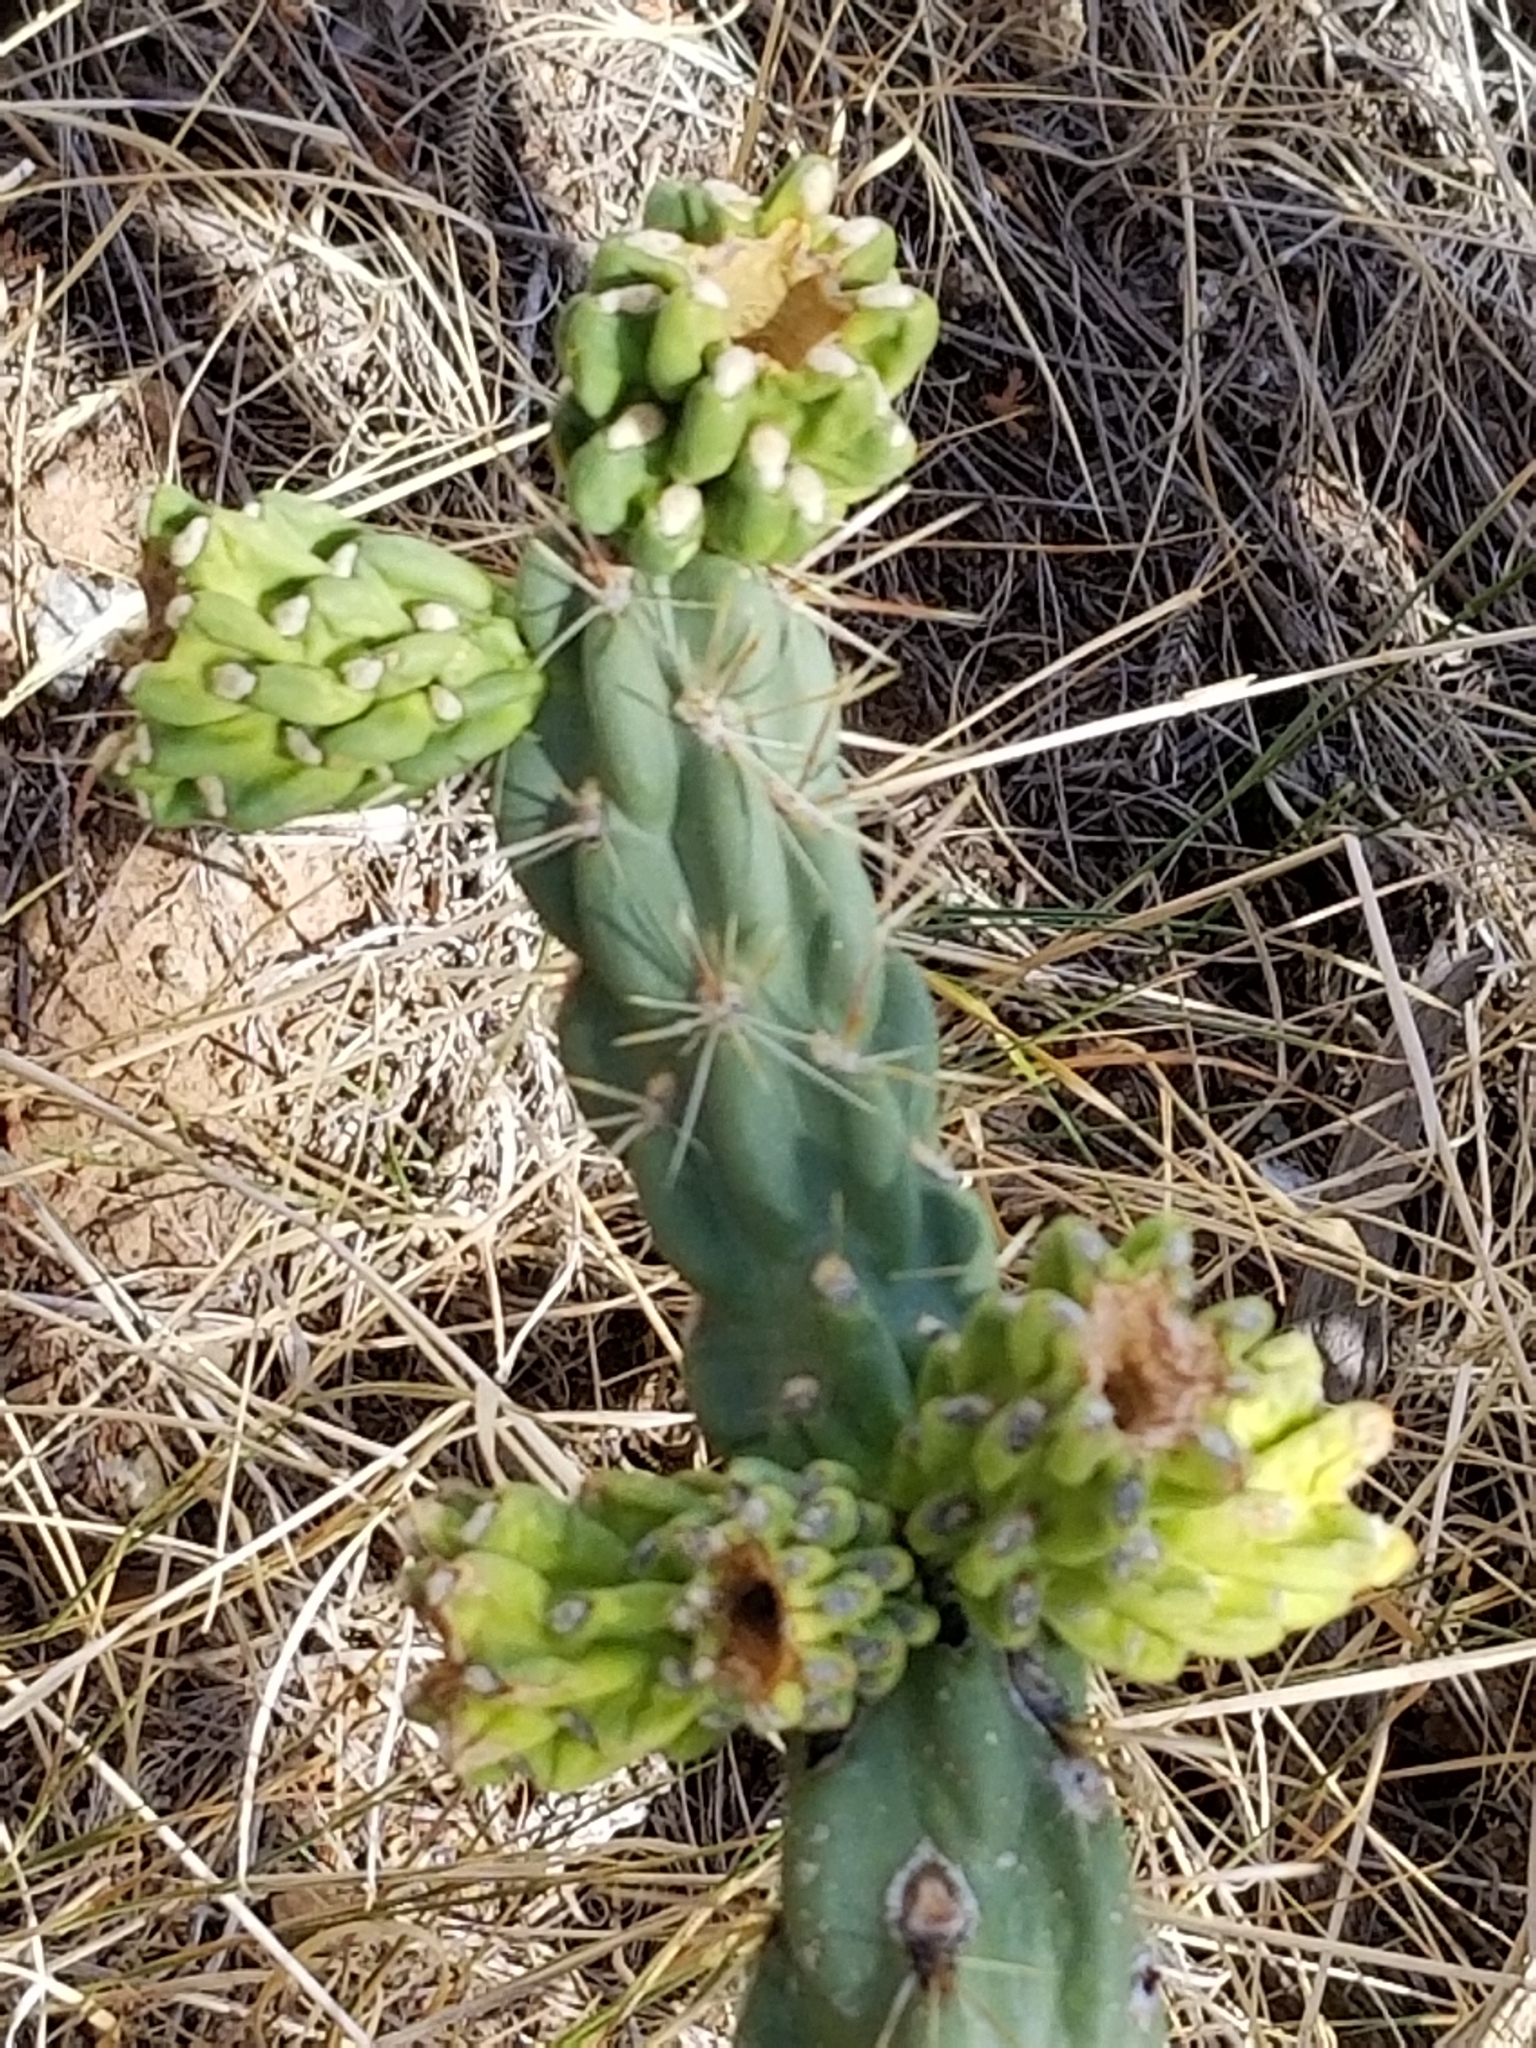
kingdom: Plantae
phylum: Tracheophyta
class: Magnoliopsida
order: Caryophyllales
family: Cactaceae
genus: Cylindropuntia
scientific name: Cylindropuntia imbricata
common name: Candelabrum cactus
